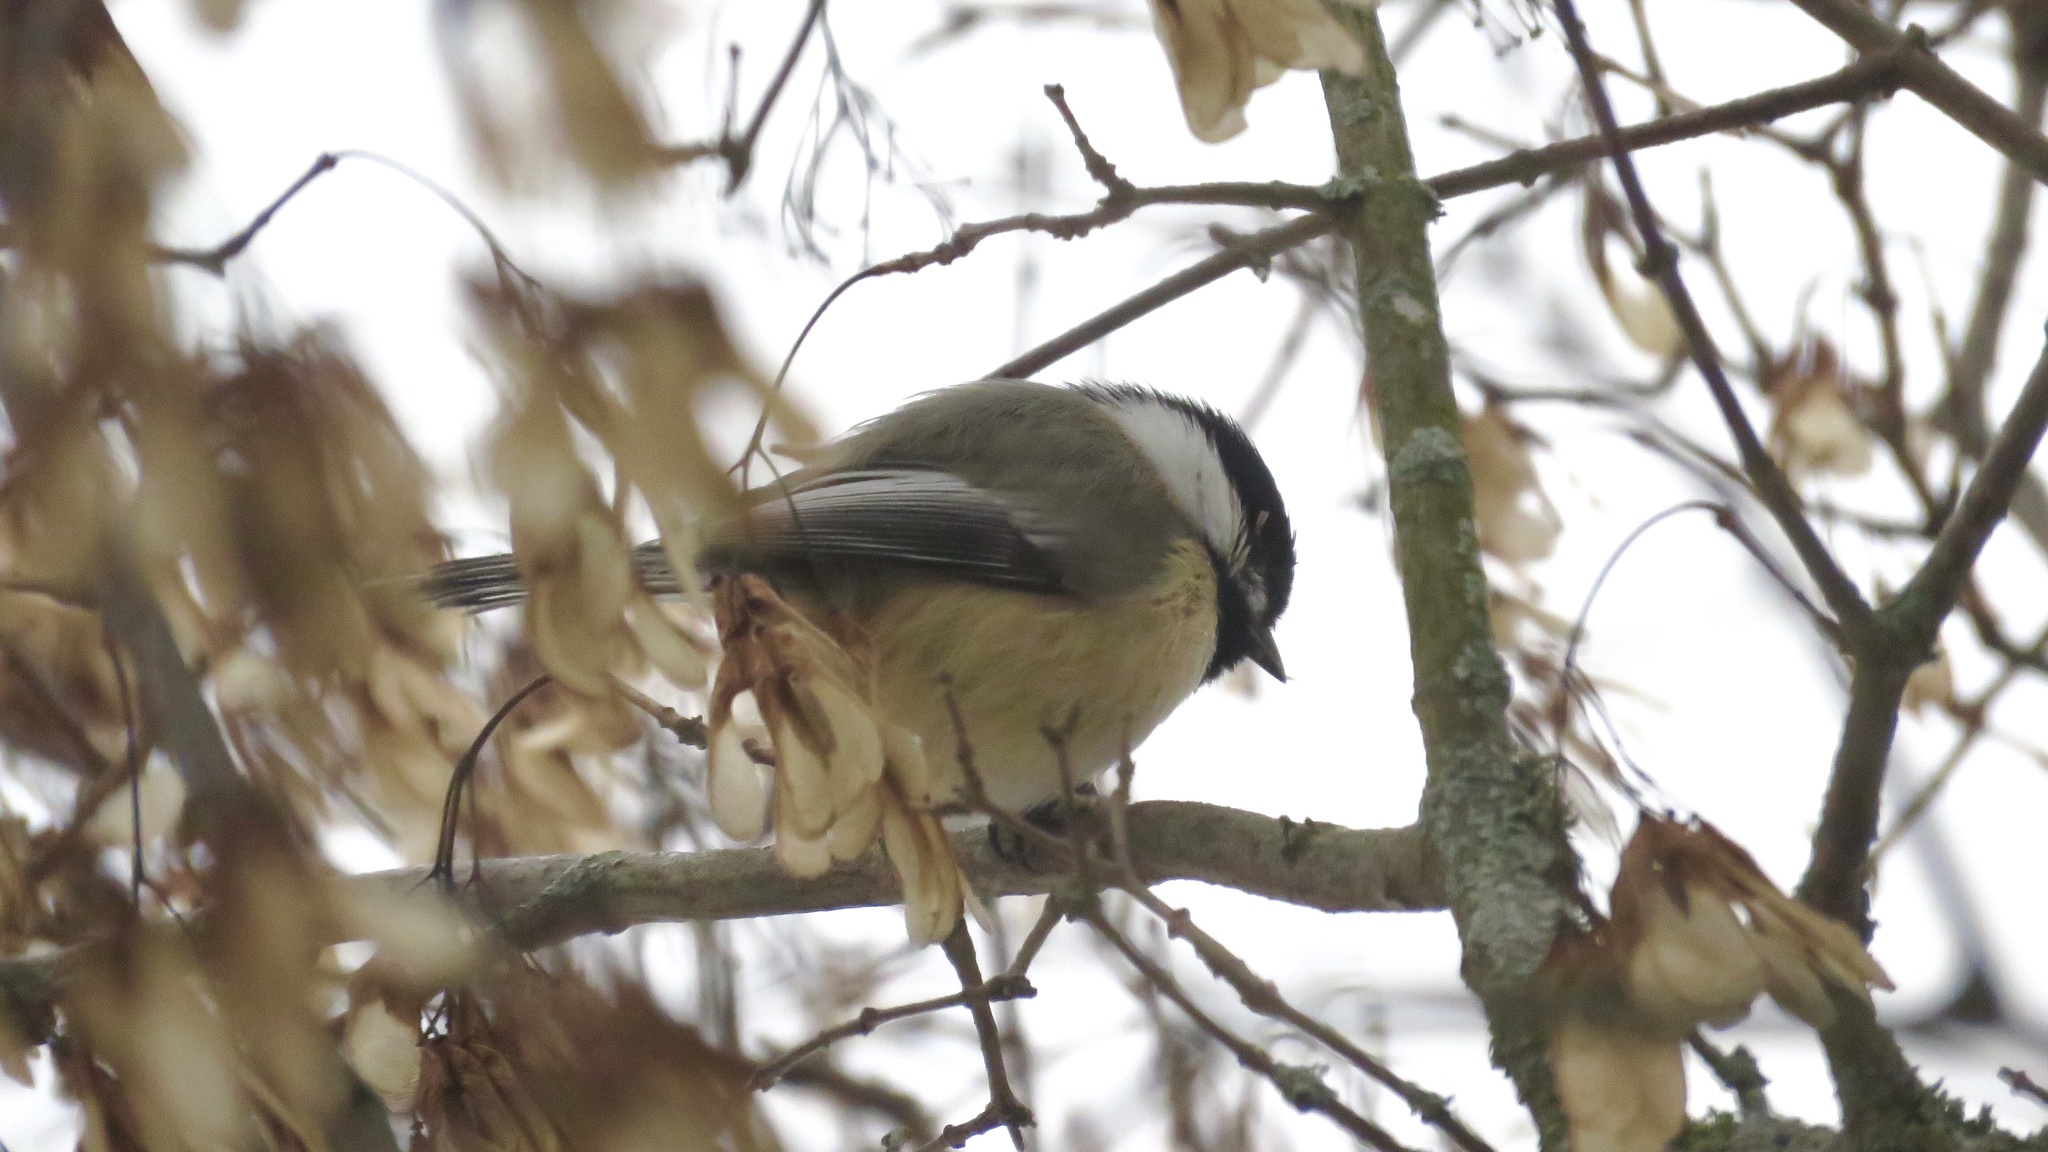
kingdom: Animalia
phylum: Chordata
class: Aves
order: Passeriformes
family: Paridae
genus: Poecile
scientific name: Poecile atricapillus
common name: Black-capped chickadee
